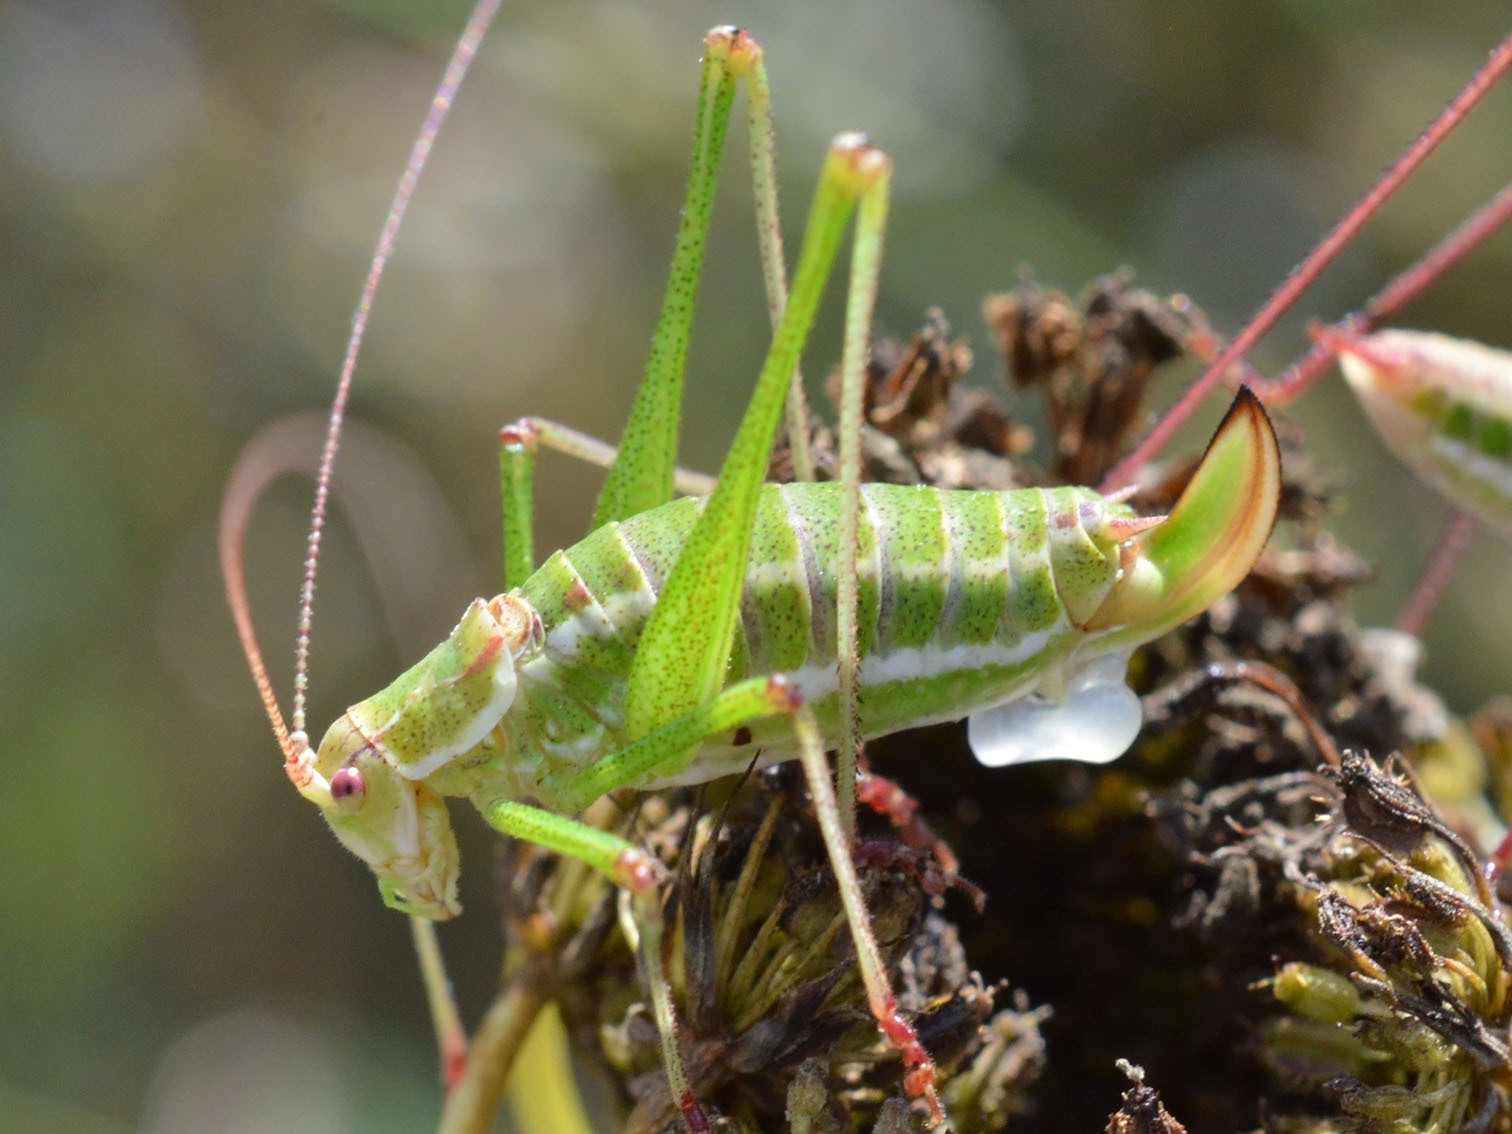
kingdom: Animalia
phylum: Arthropoda
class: Insecta
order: Orthoptera
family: Tettigoniidae
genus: Leptophyes
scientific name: Leptophyes albovittata
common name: Striped bush-cricket
